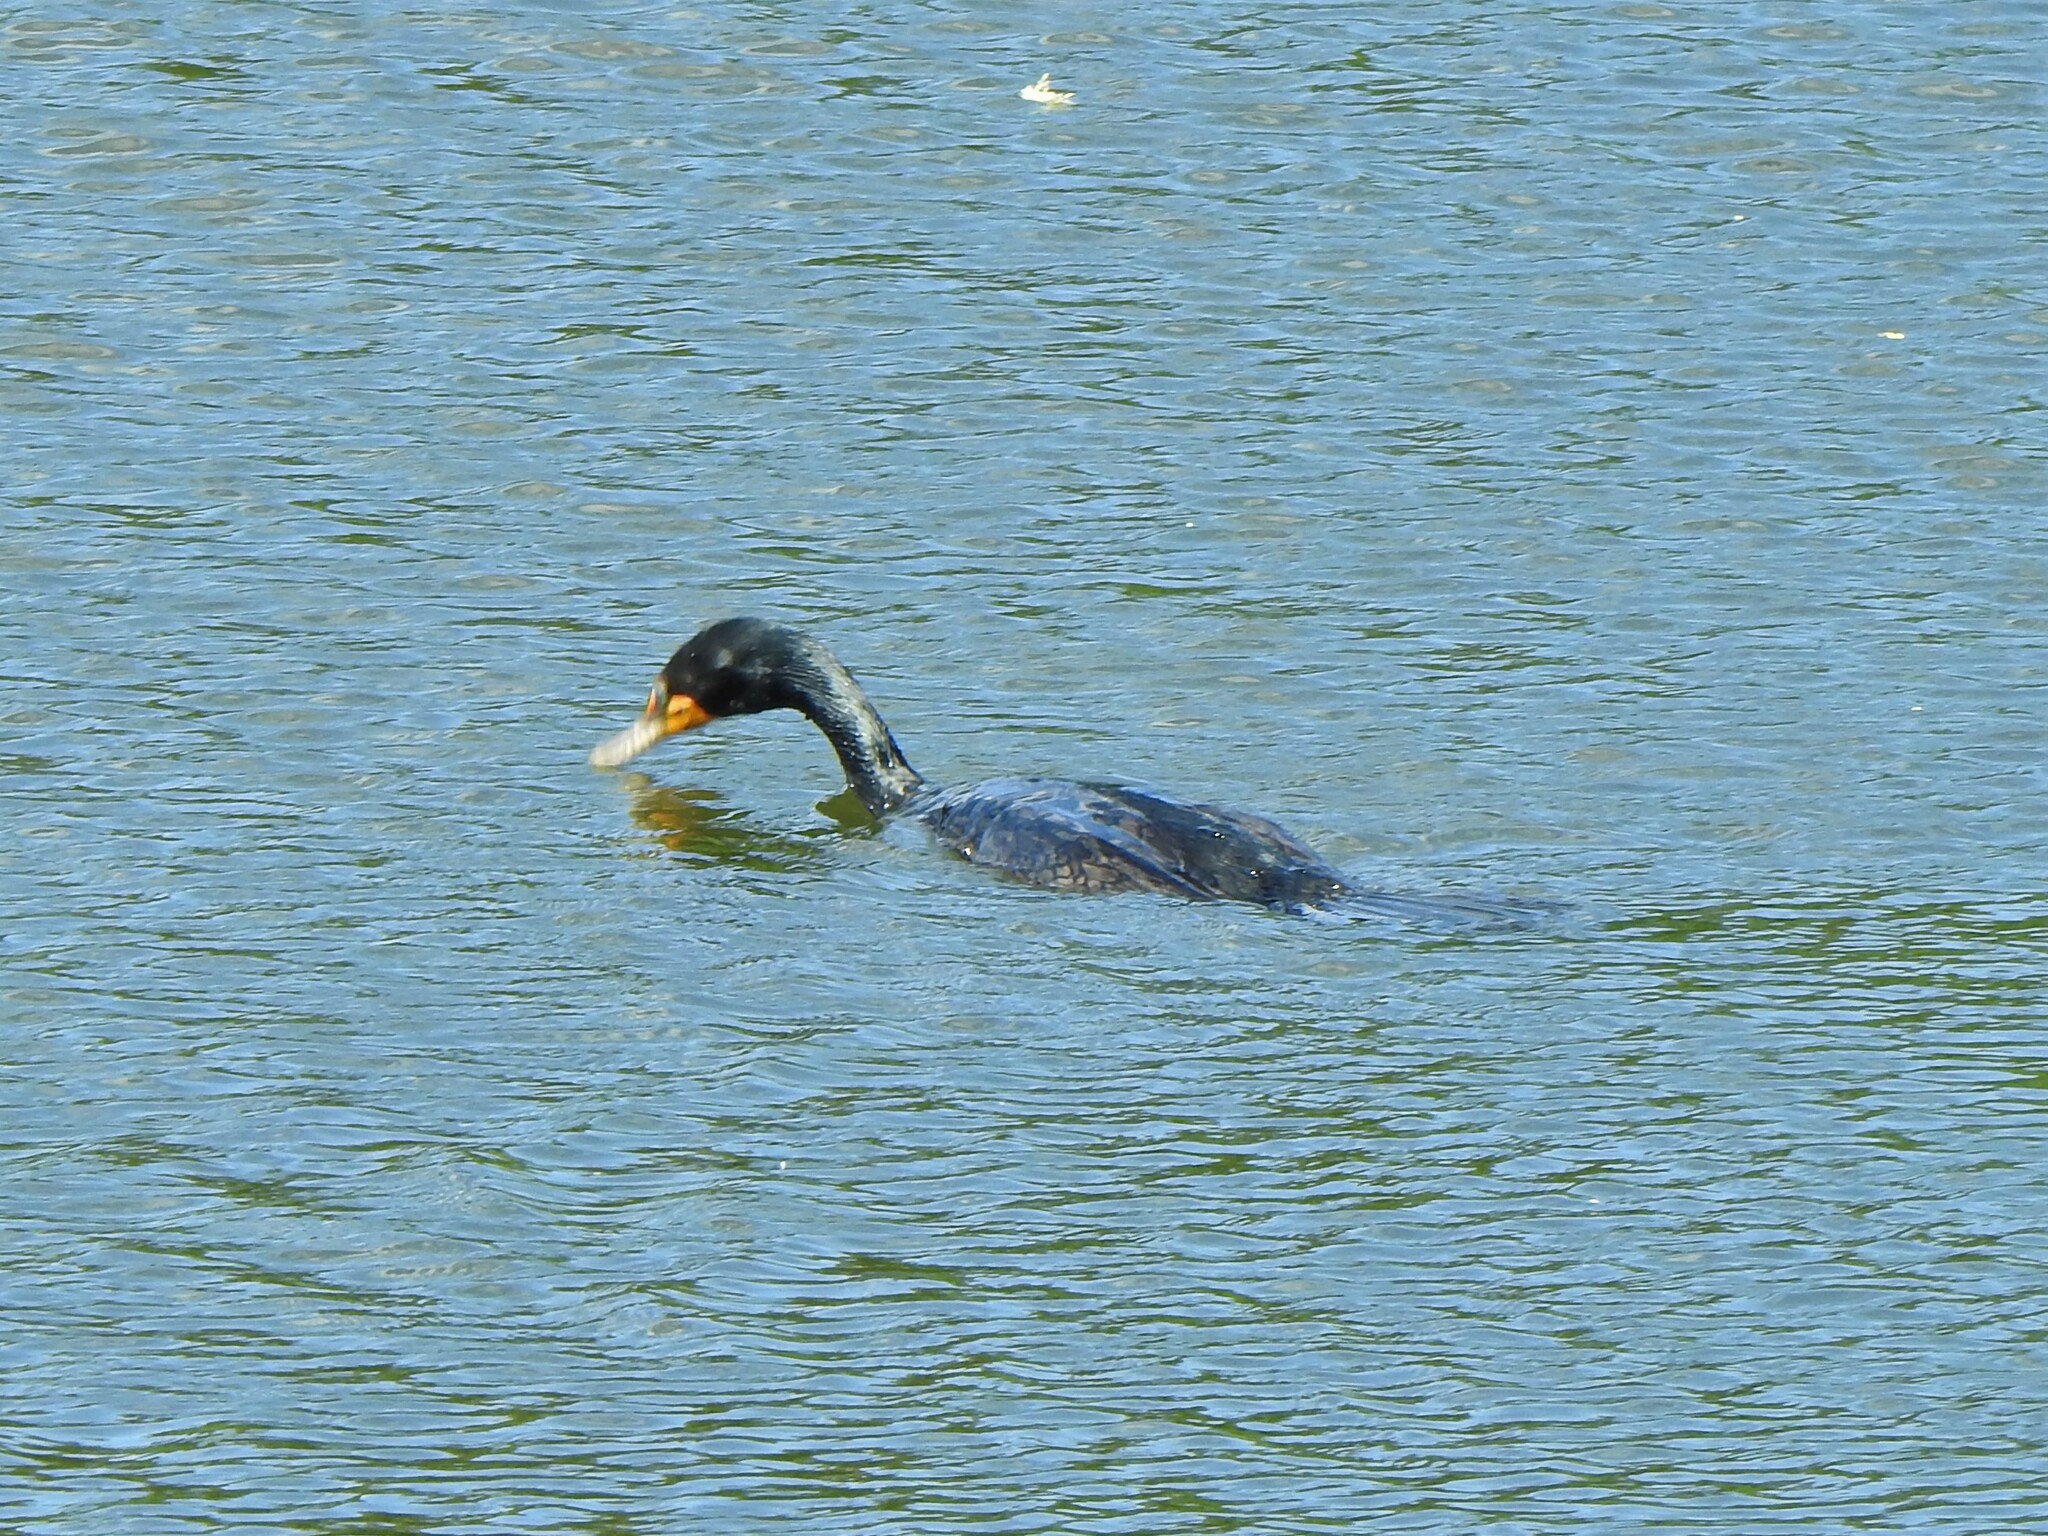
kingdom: Animalia
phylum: Chordata
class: Aves
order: Suliformes
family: Phalacrocoracidae
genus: Phalacrocorax
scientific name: Phalacrocorax auritus
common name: Double-crested cormorant
